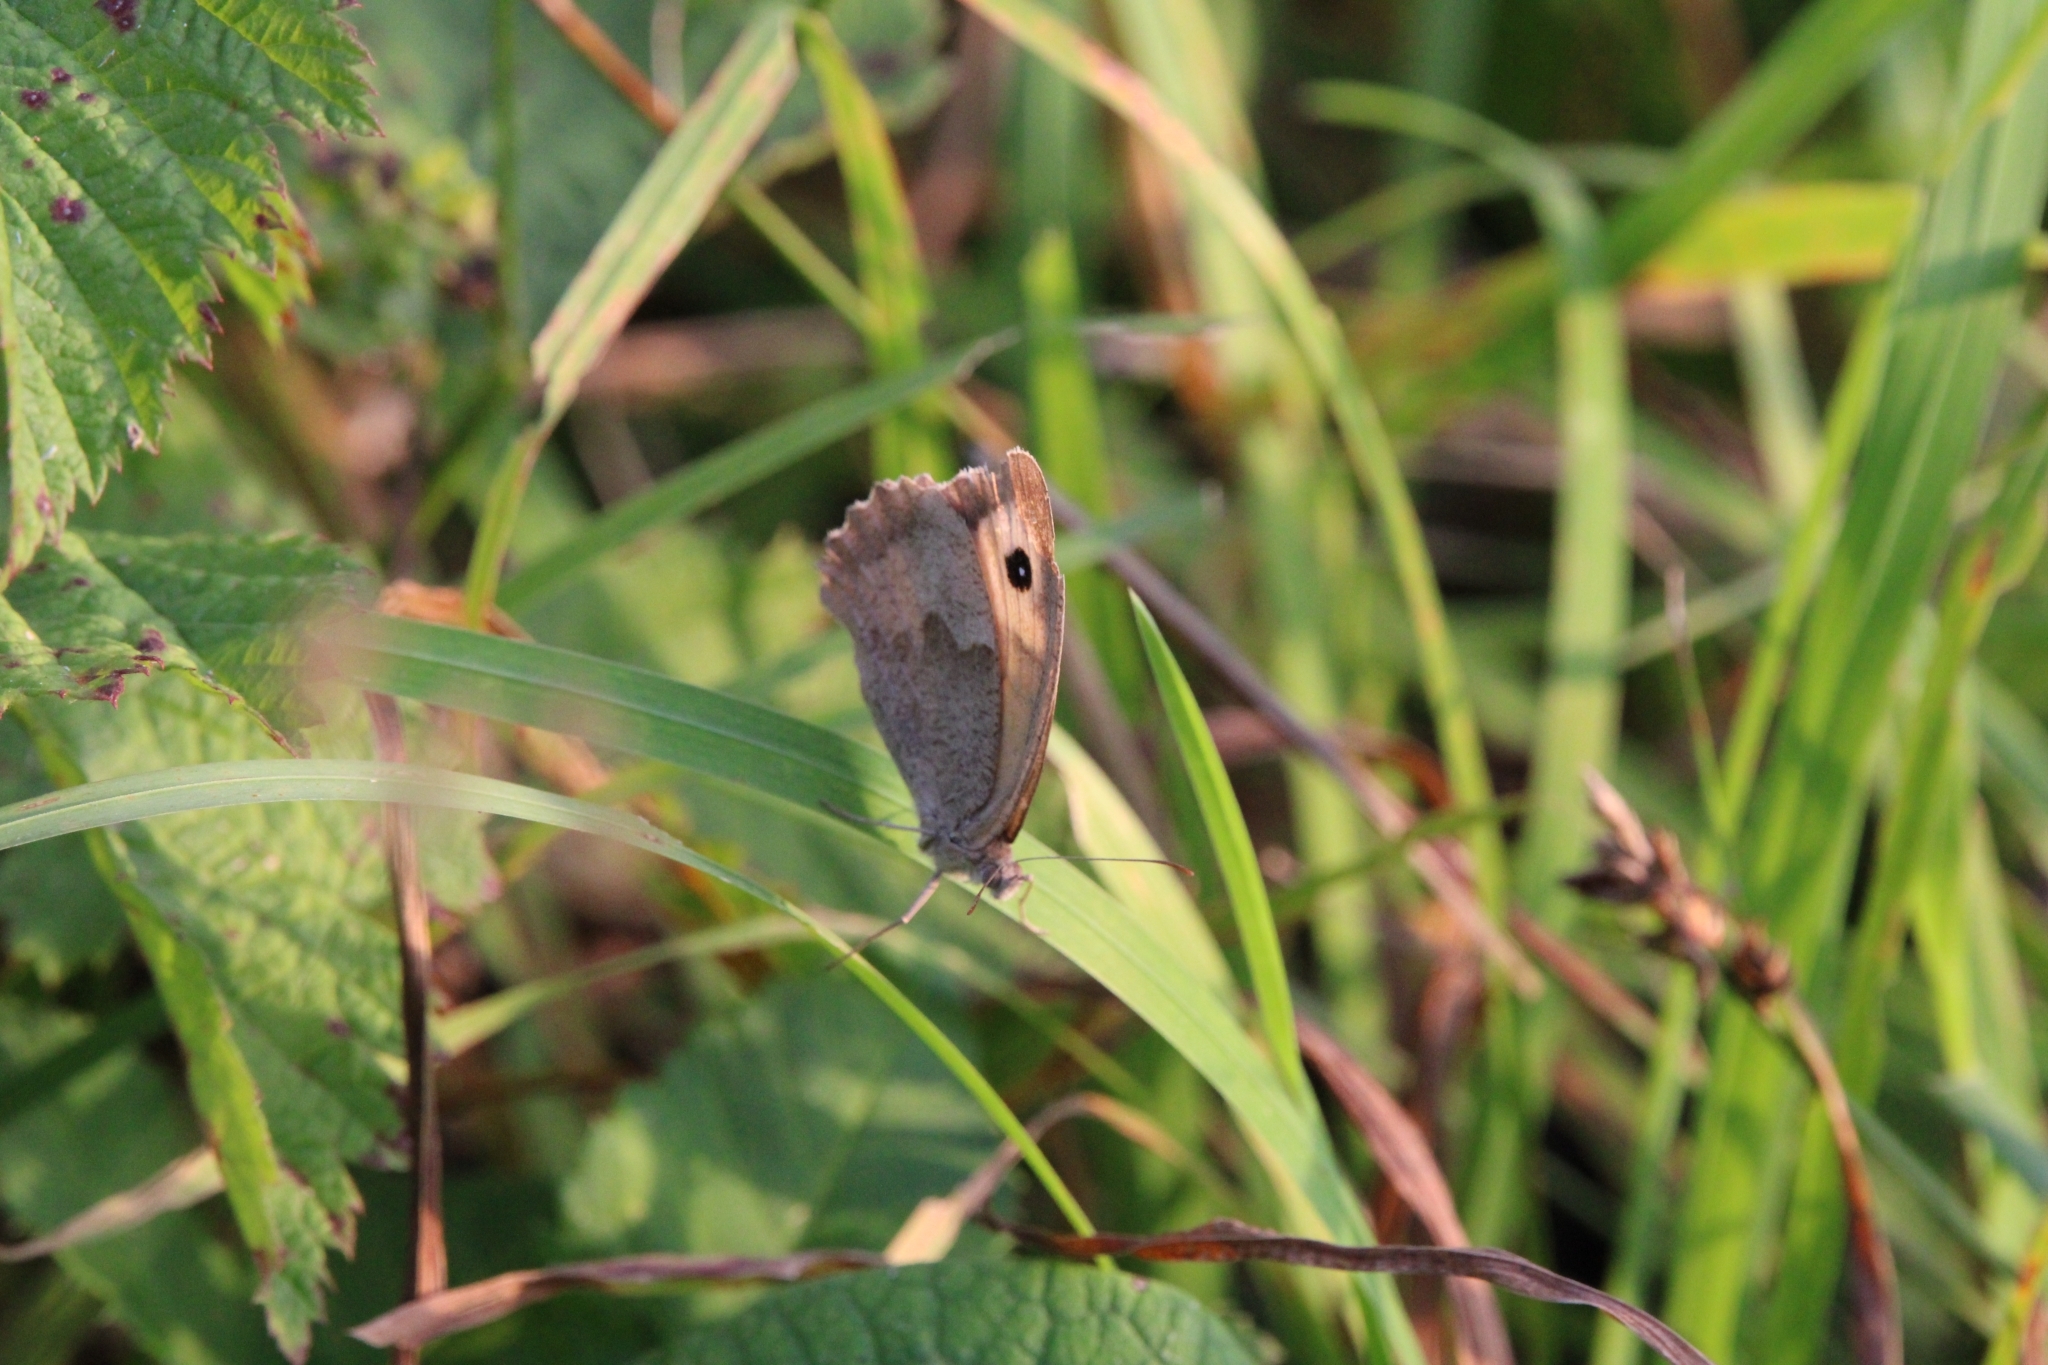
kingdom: Animalia
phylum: Arthropoda
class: Insecta
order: Lepidoptera
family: Nymphalidae
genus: Maniola
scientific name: Maniola jurtina
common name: Meadow brown
